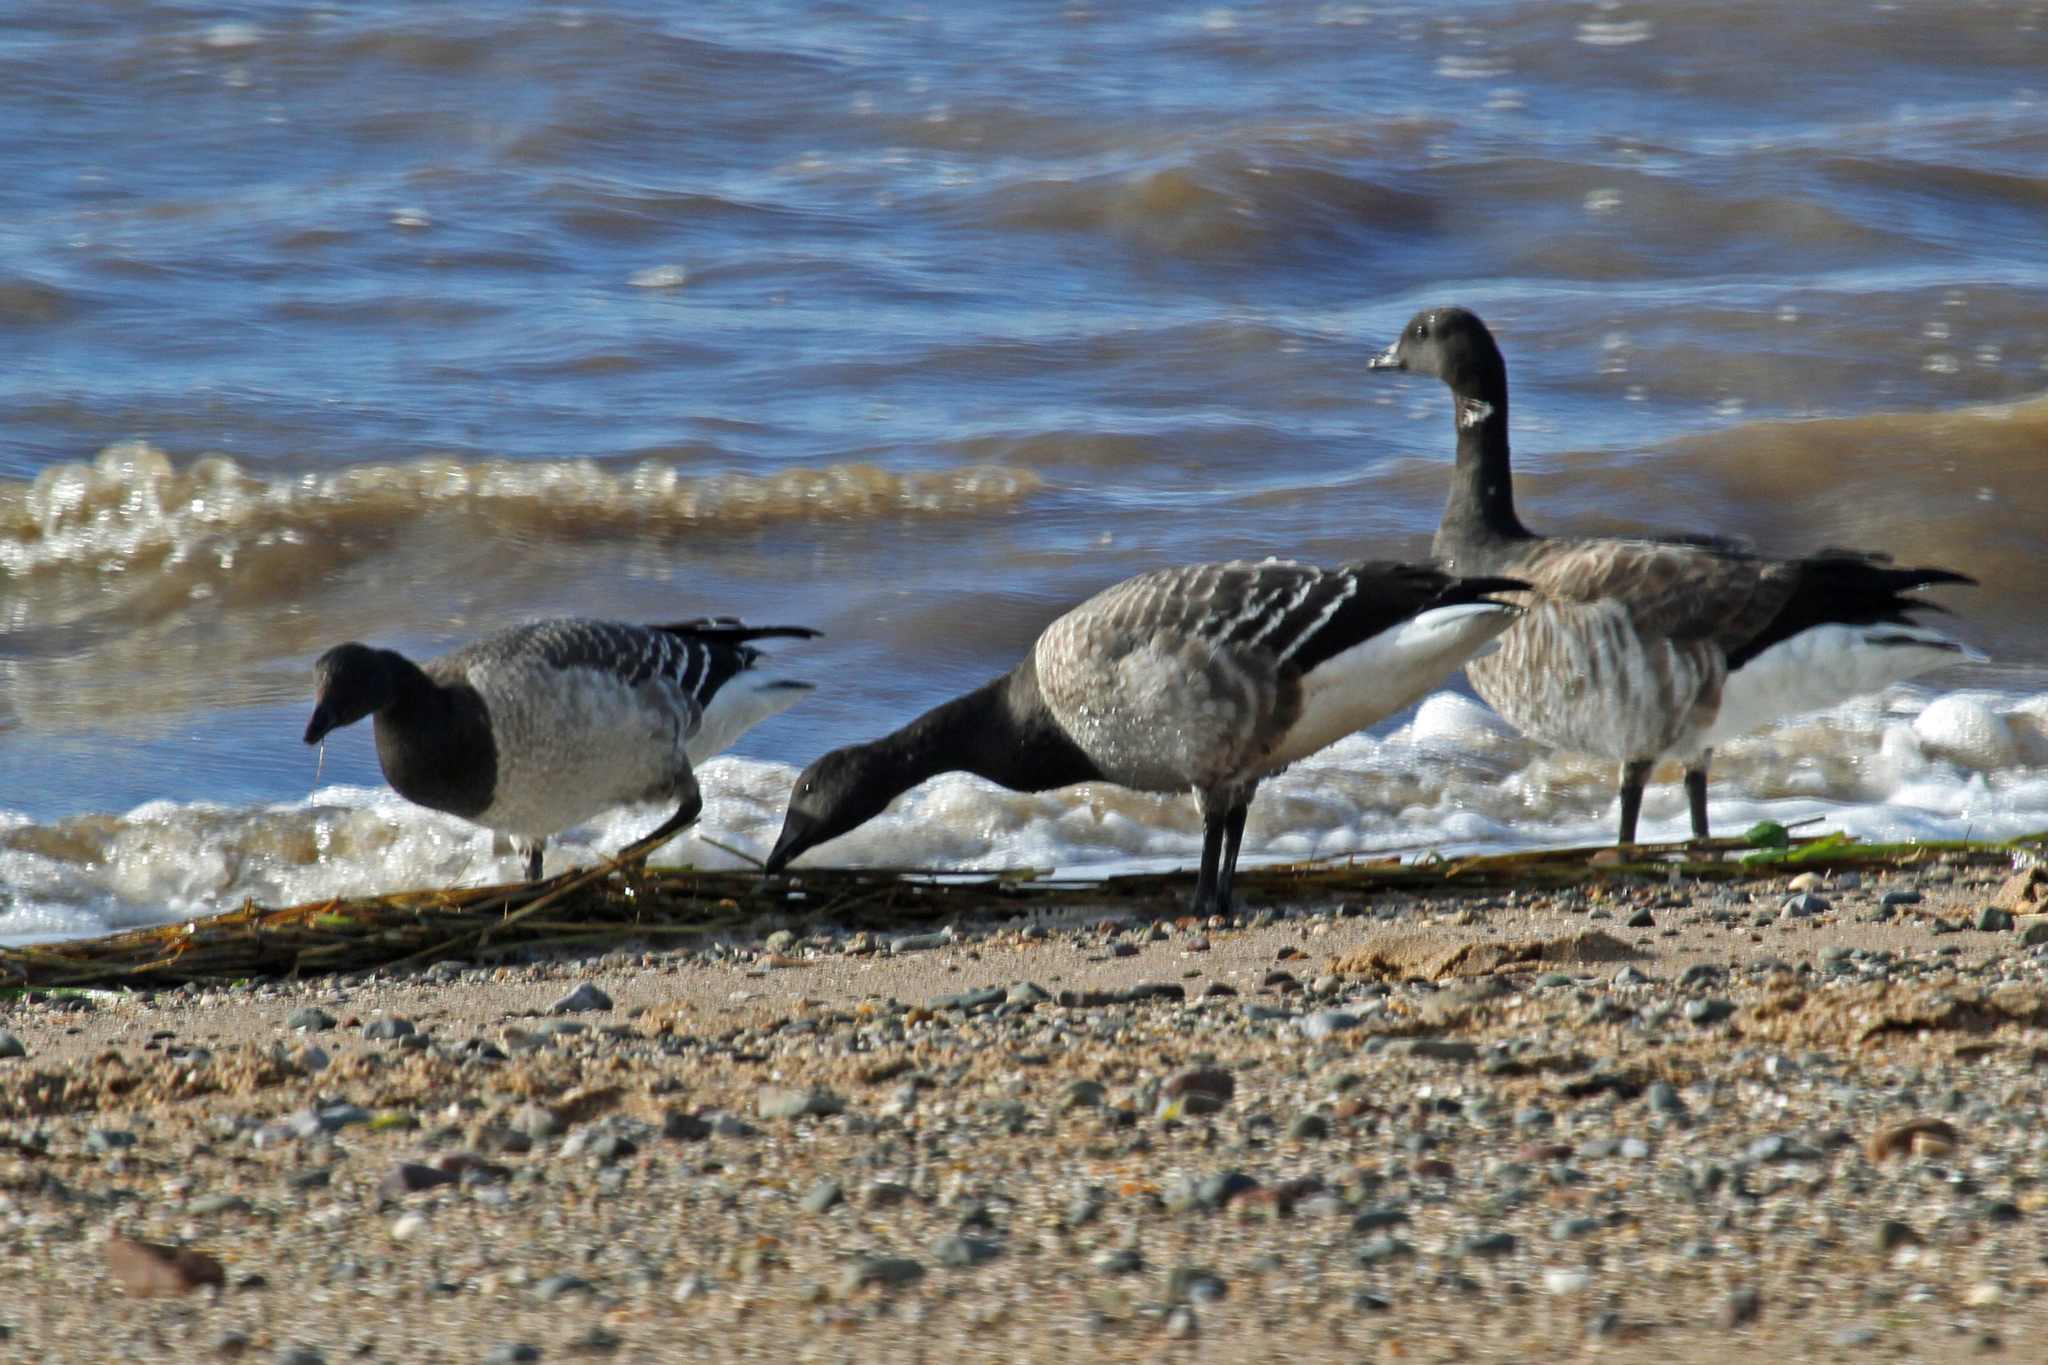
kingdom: Animalia
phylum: Chordata
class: Aves
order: Anseriformes
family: Anatidae
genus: Branta
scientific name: Branta bernicla
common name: Brant goose
